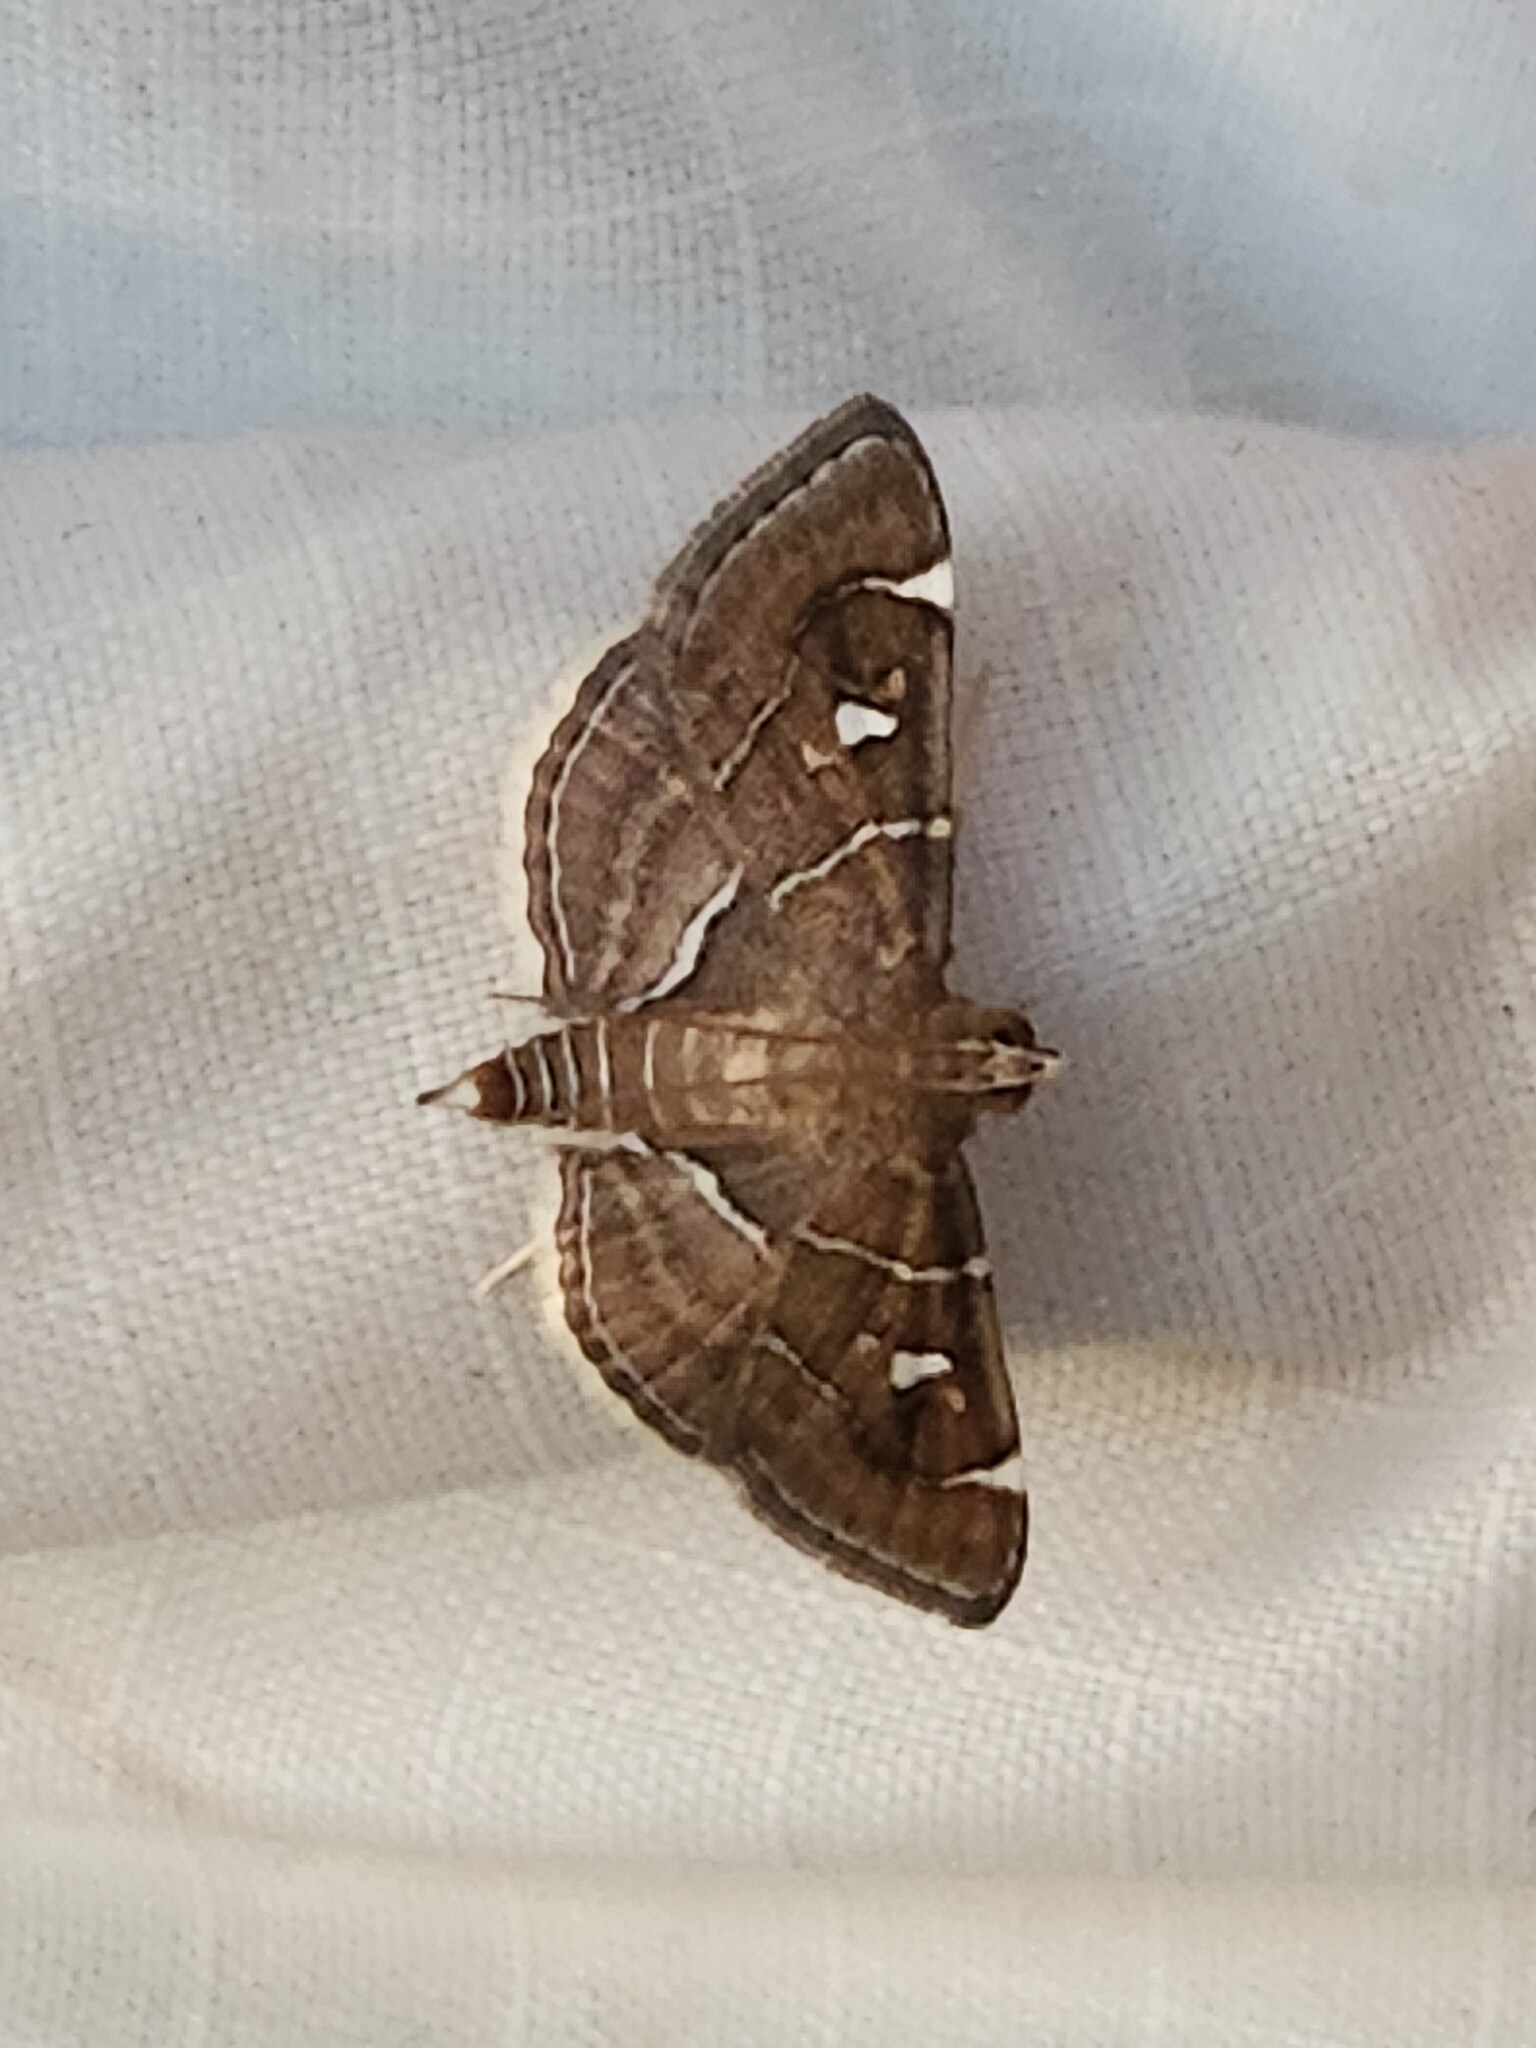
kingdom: Animalia
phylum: Arthropoda
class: Insecta
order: Lepidoptera
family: Crambidae
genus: Lamprosema
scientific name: Lamprosema victoriae
